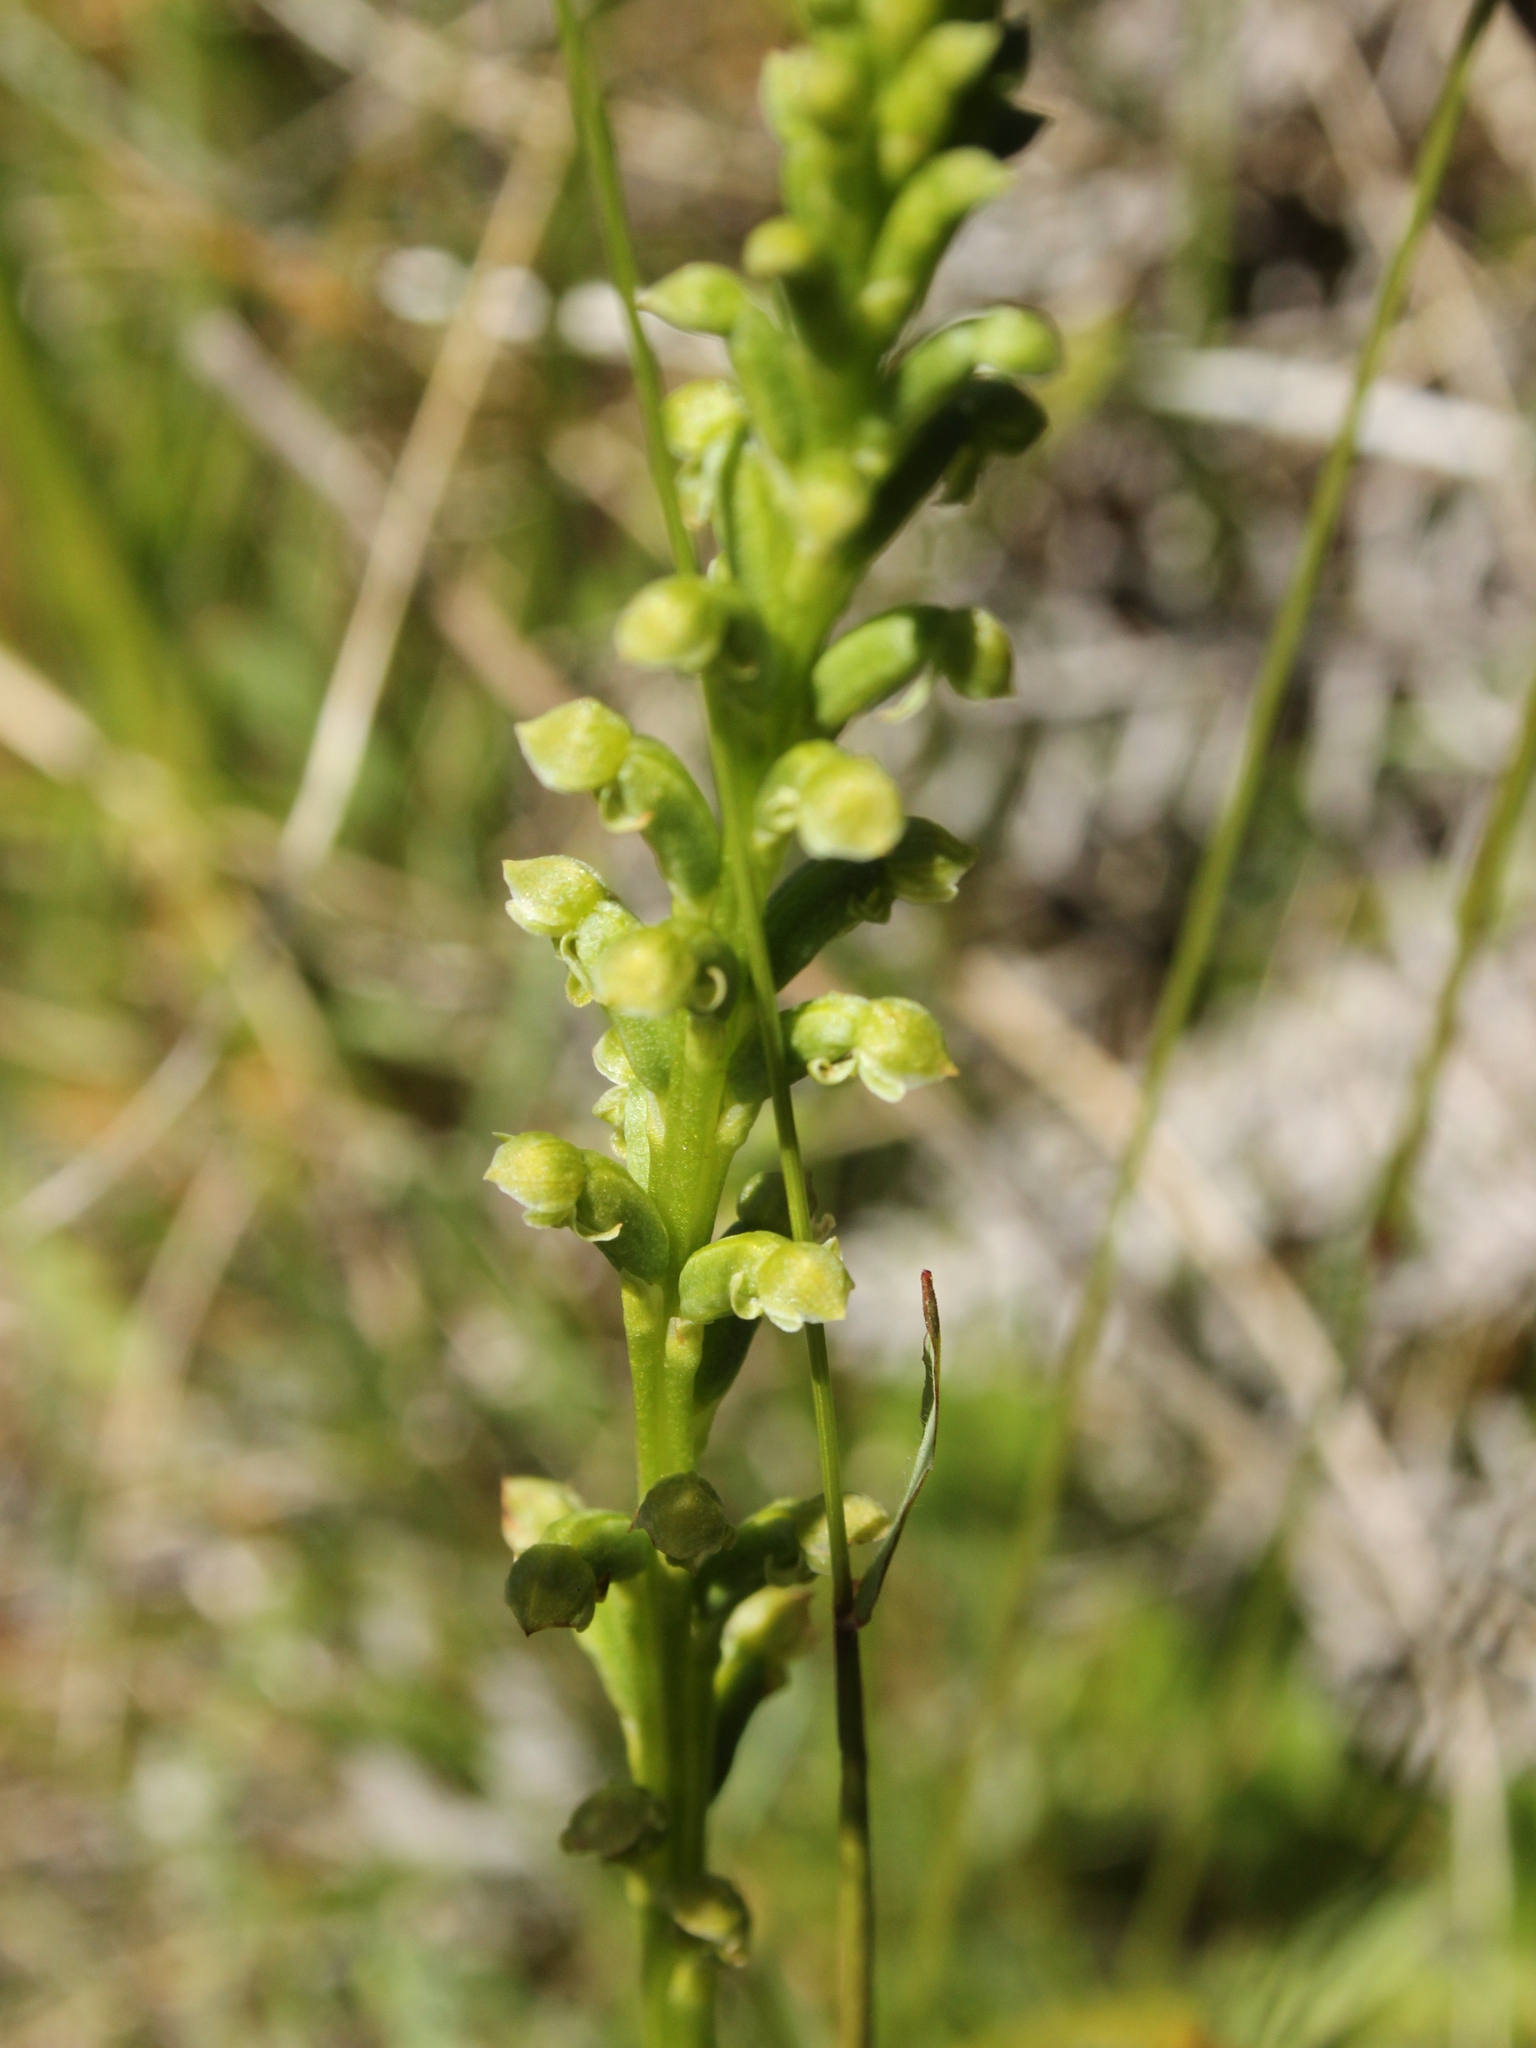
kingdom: Plantae
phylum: Tracheophyta
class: Liliopsida
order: Asparagales
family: Orchidaceae
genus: Microtis
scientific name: Microtis unifolia
